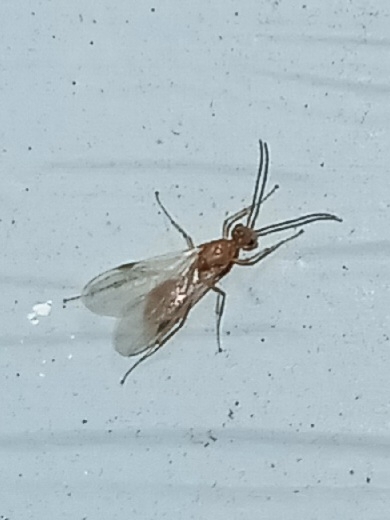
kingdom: Animalia
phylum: Arthropoda
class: Insecta
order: Hymenoptera
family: Formicidae
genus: Pachycondyla
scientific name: Pachycondyla chinensis
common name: Asian needle ant
